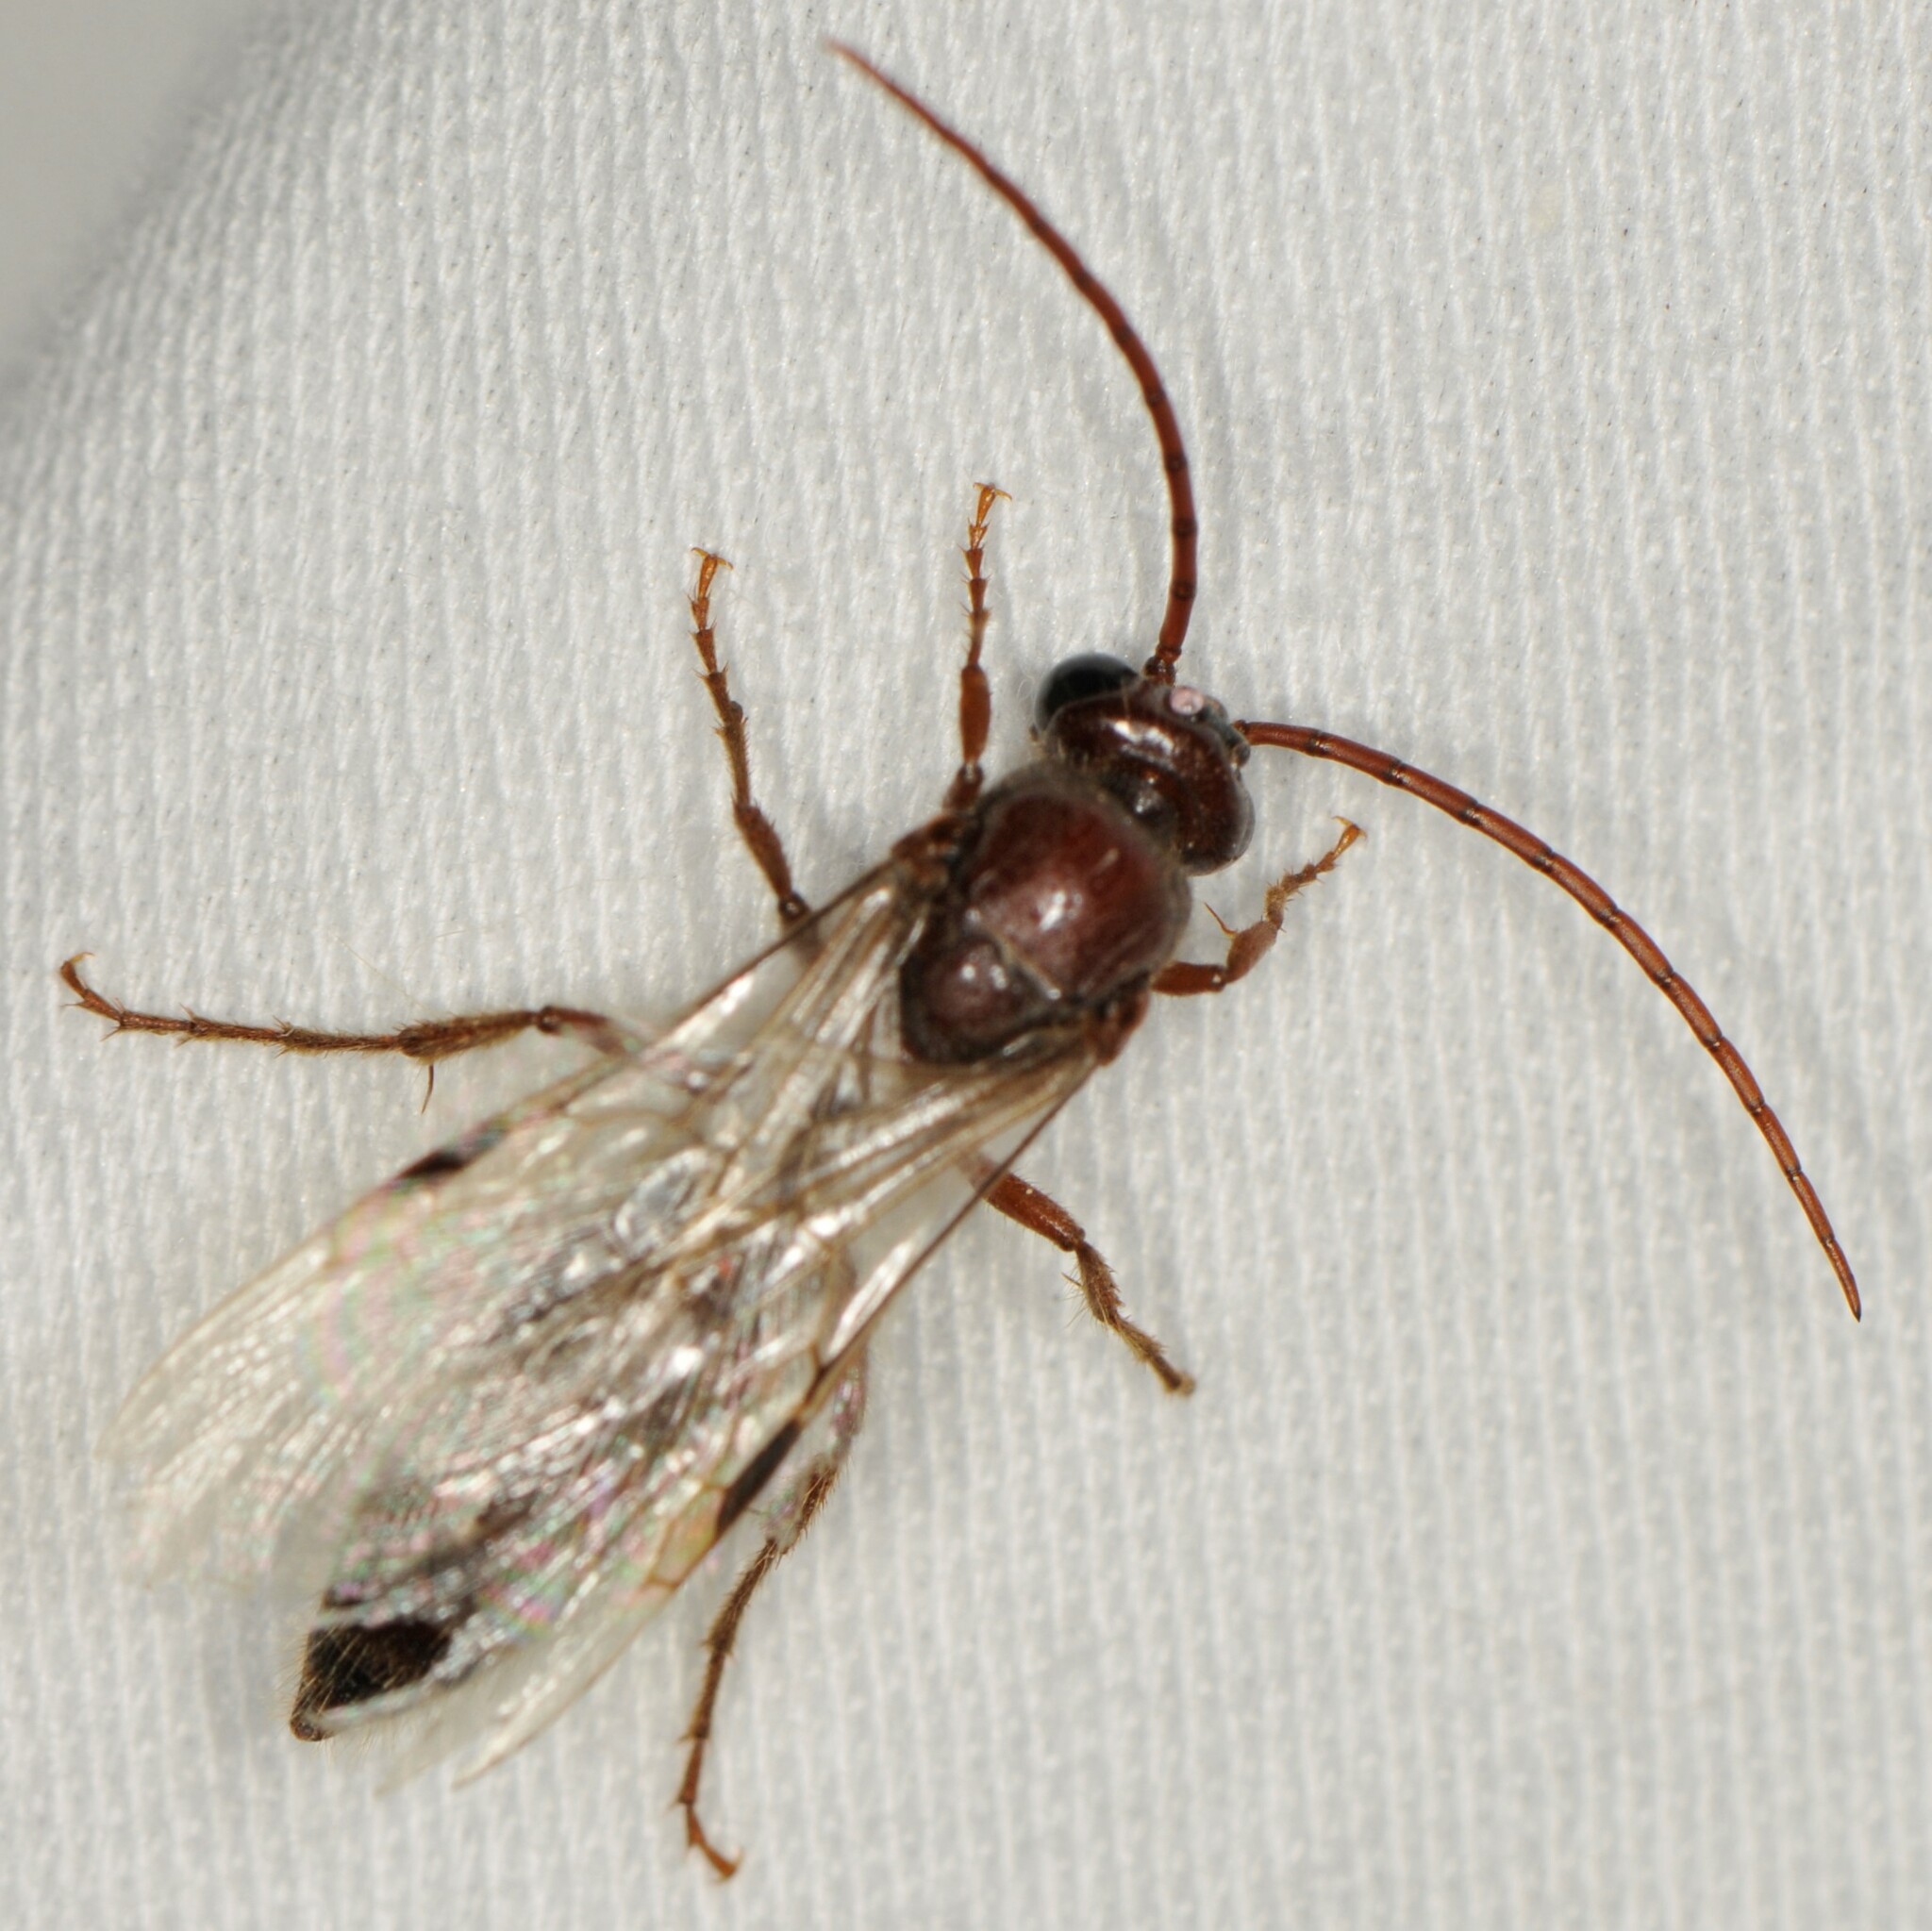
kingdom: Animalia
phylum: Arthropoda
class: Insecta
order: Hymenoptera
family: Tiphiidae
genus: Colocistis
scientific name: Colocistis castanea
